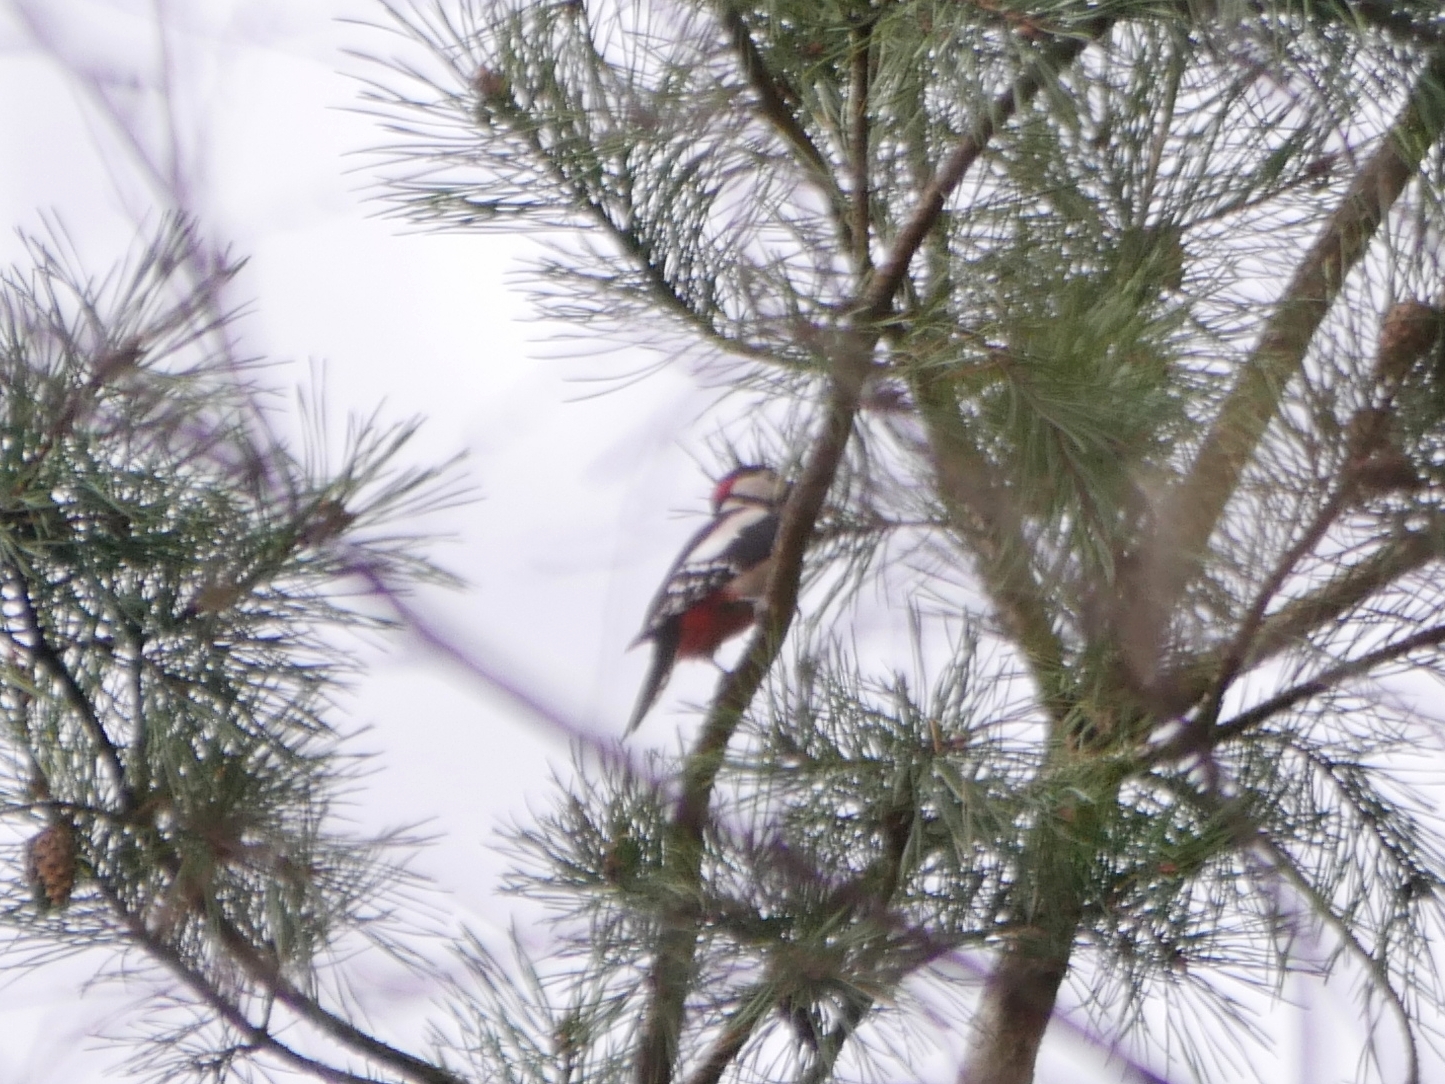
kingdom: Animalia
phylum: Chordata
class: Aves
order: Piciformes
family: Picidae
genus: Dendrocopos
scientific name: Dendrocopos major
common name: Great spotted woodpecker
